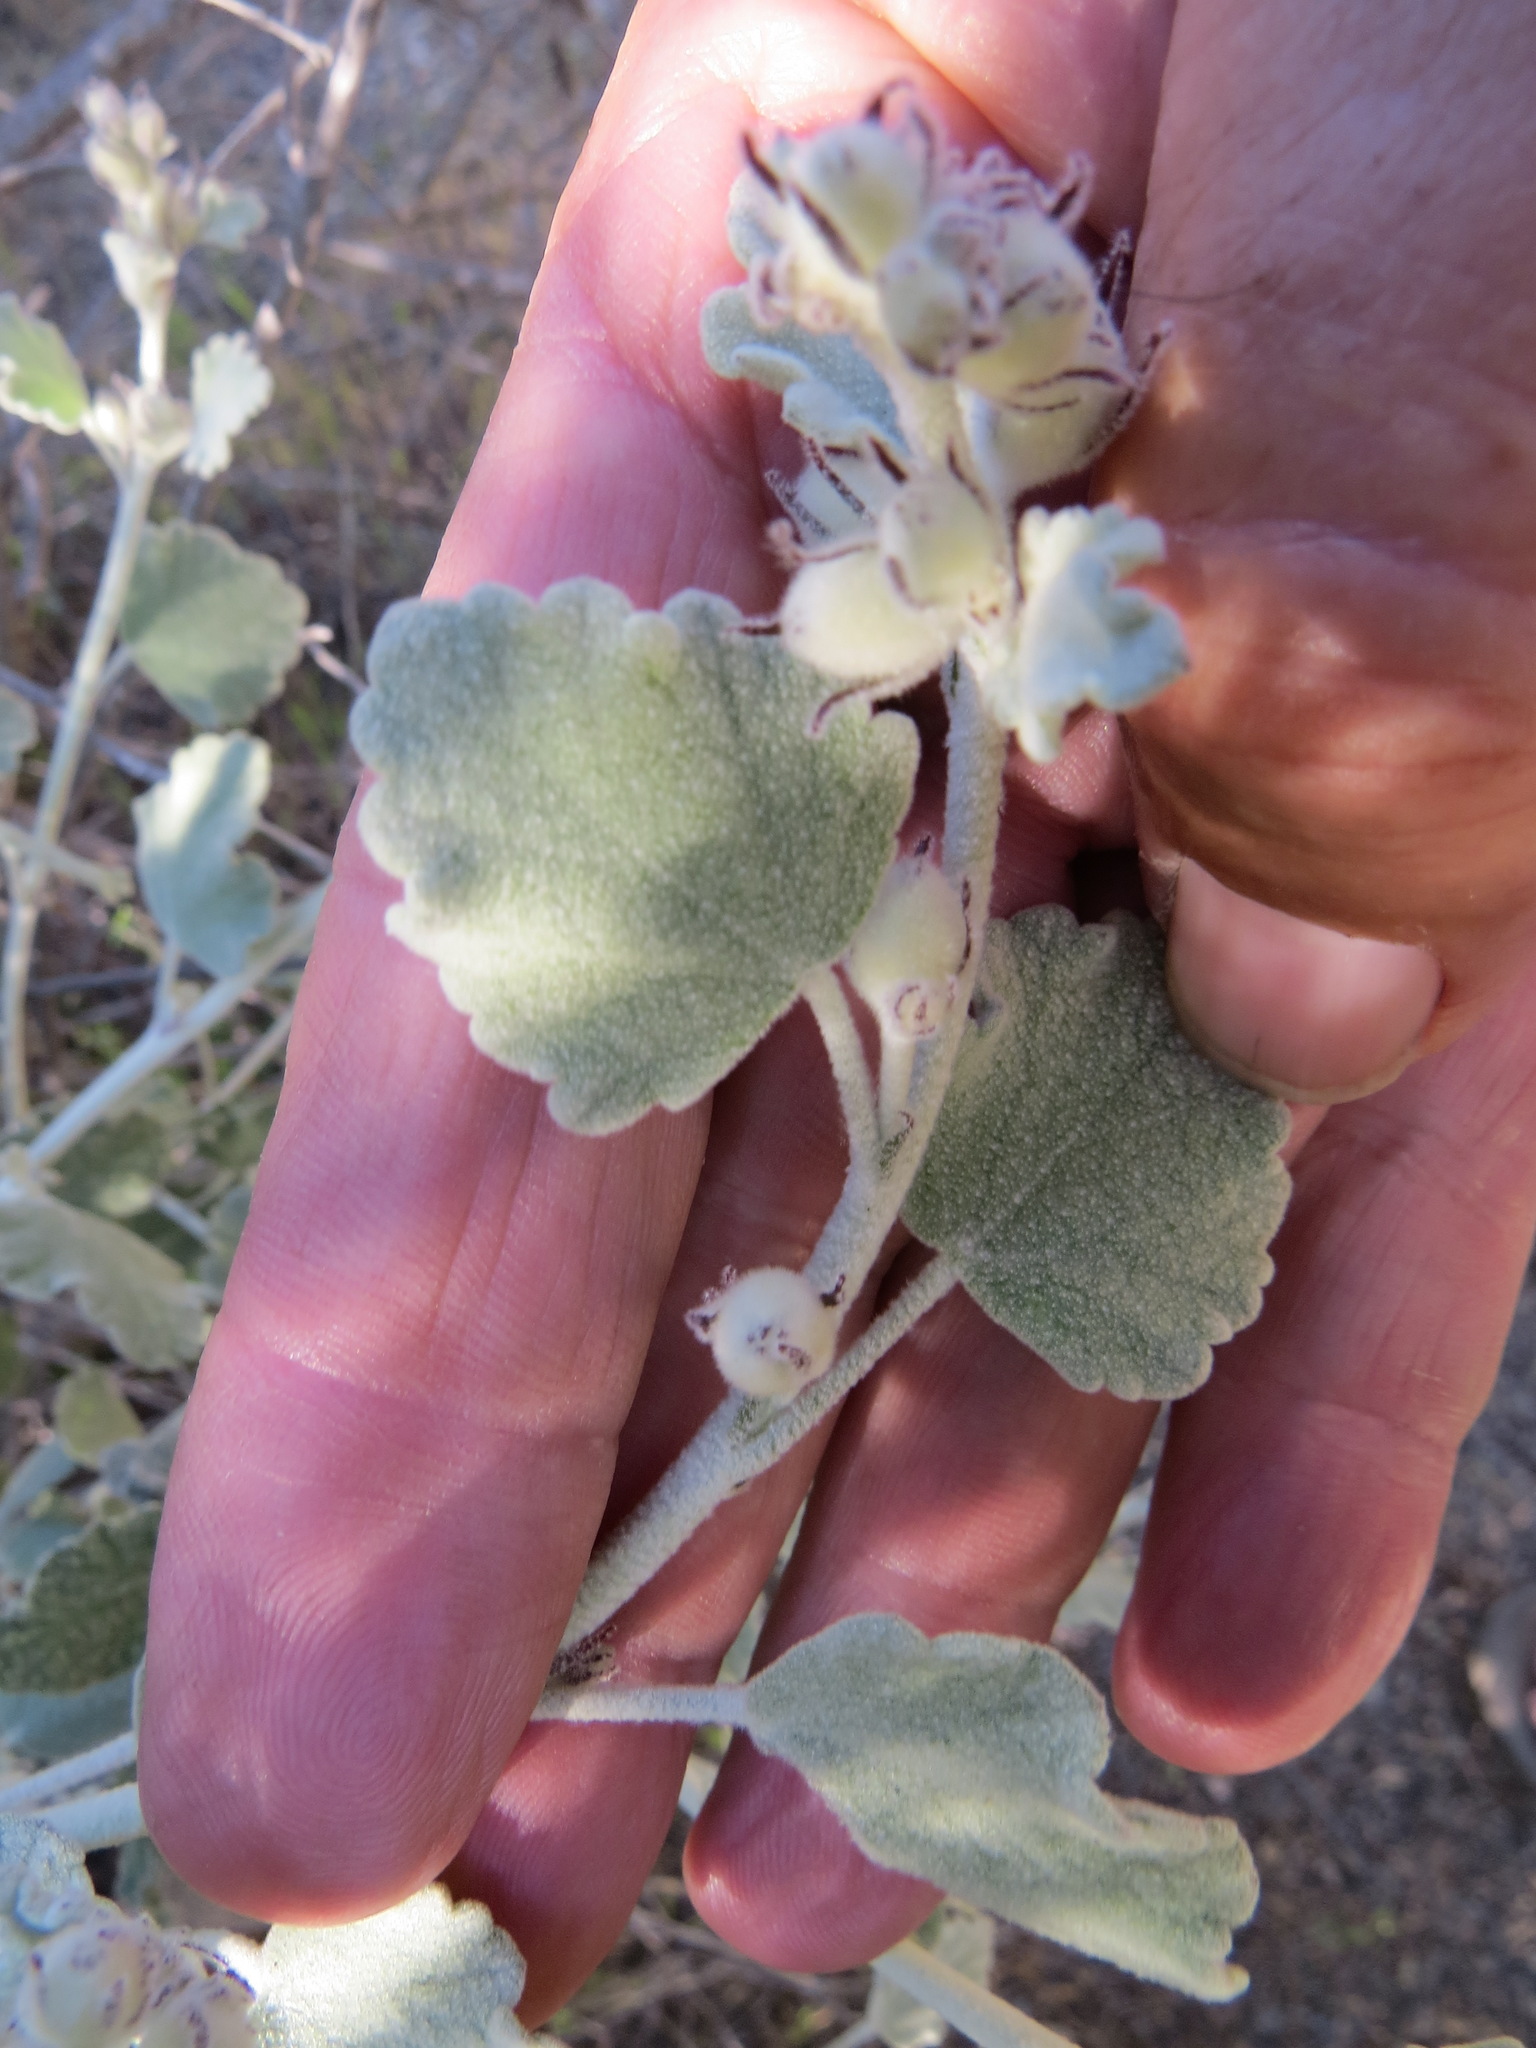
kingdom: Plantae
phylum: Tracheophyta
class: Magnoliopsida
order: Malvales
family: Malvaceae
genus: Malacothamnus
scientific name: Malacothamnus jonesii
